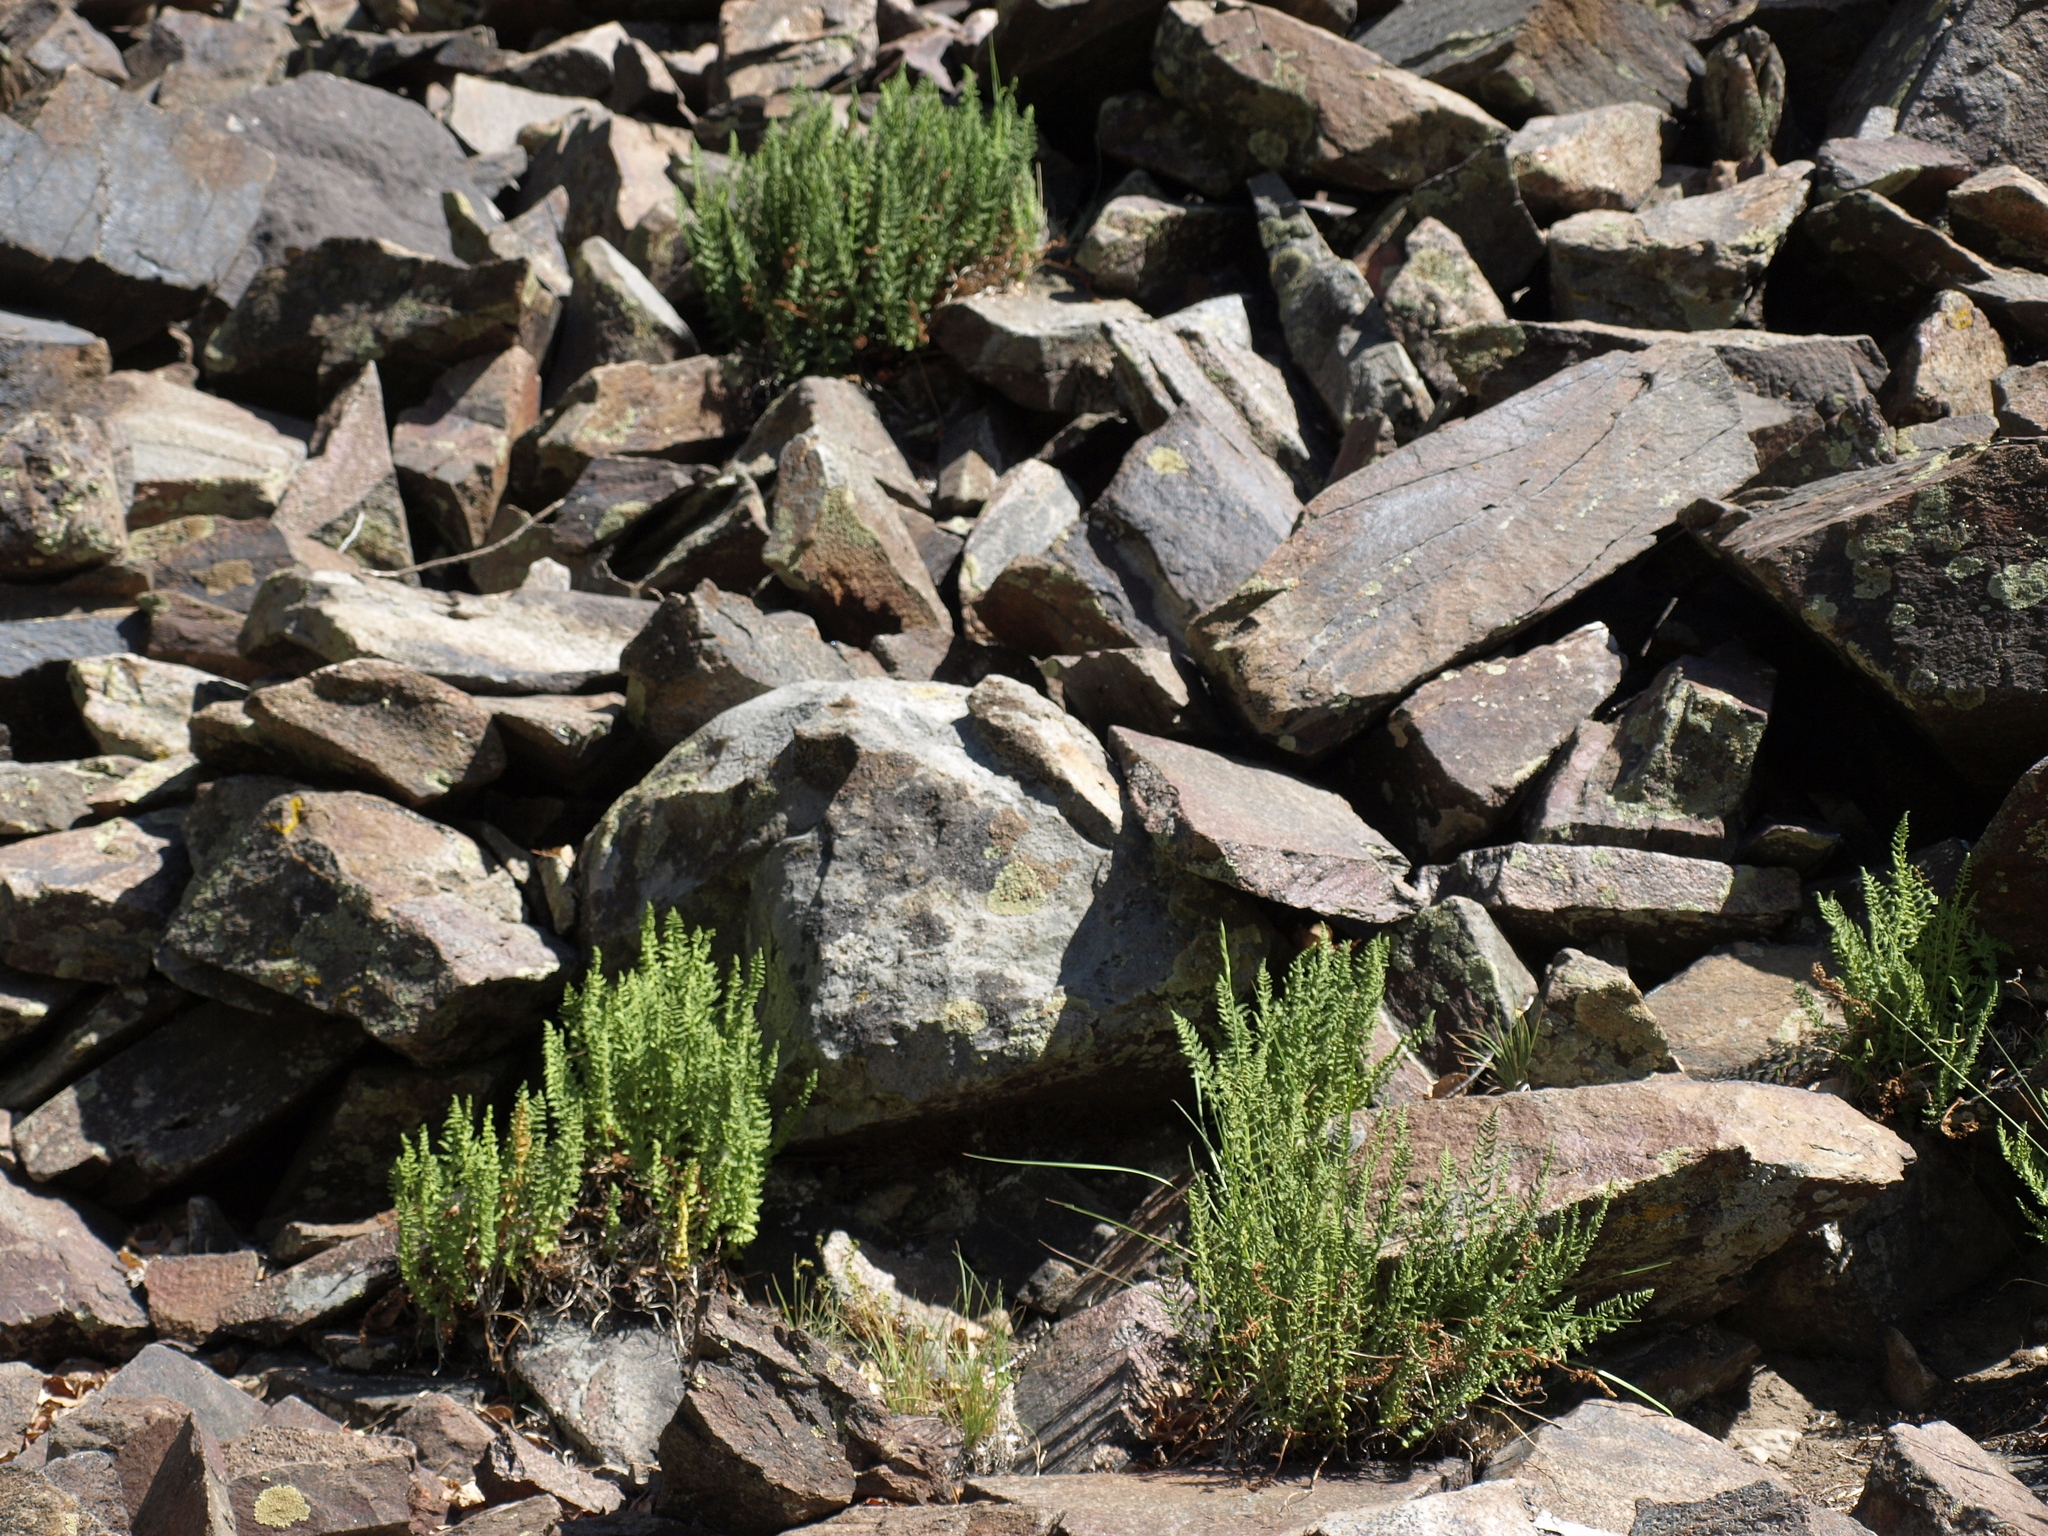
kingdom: Plantae
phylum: Tracheophyta
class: Polypodiopsida
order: Polypodiales
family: Woodsiaceae
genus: Physematium
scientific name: Physematium scopulinum
